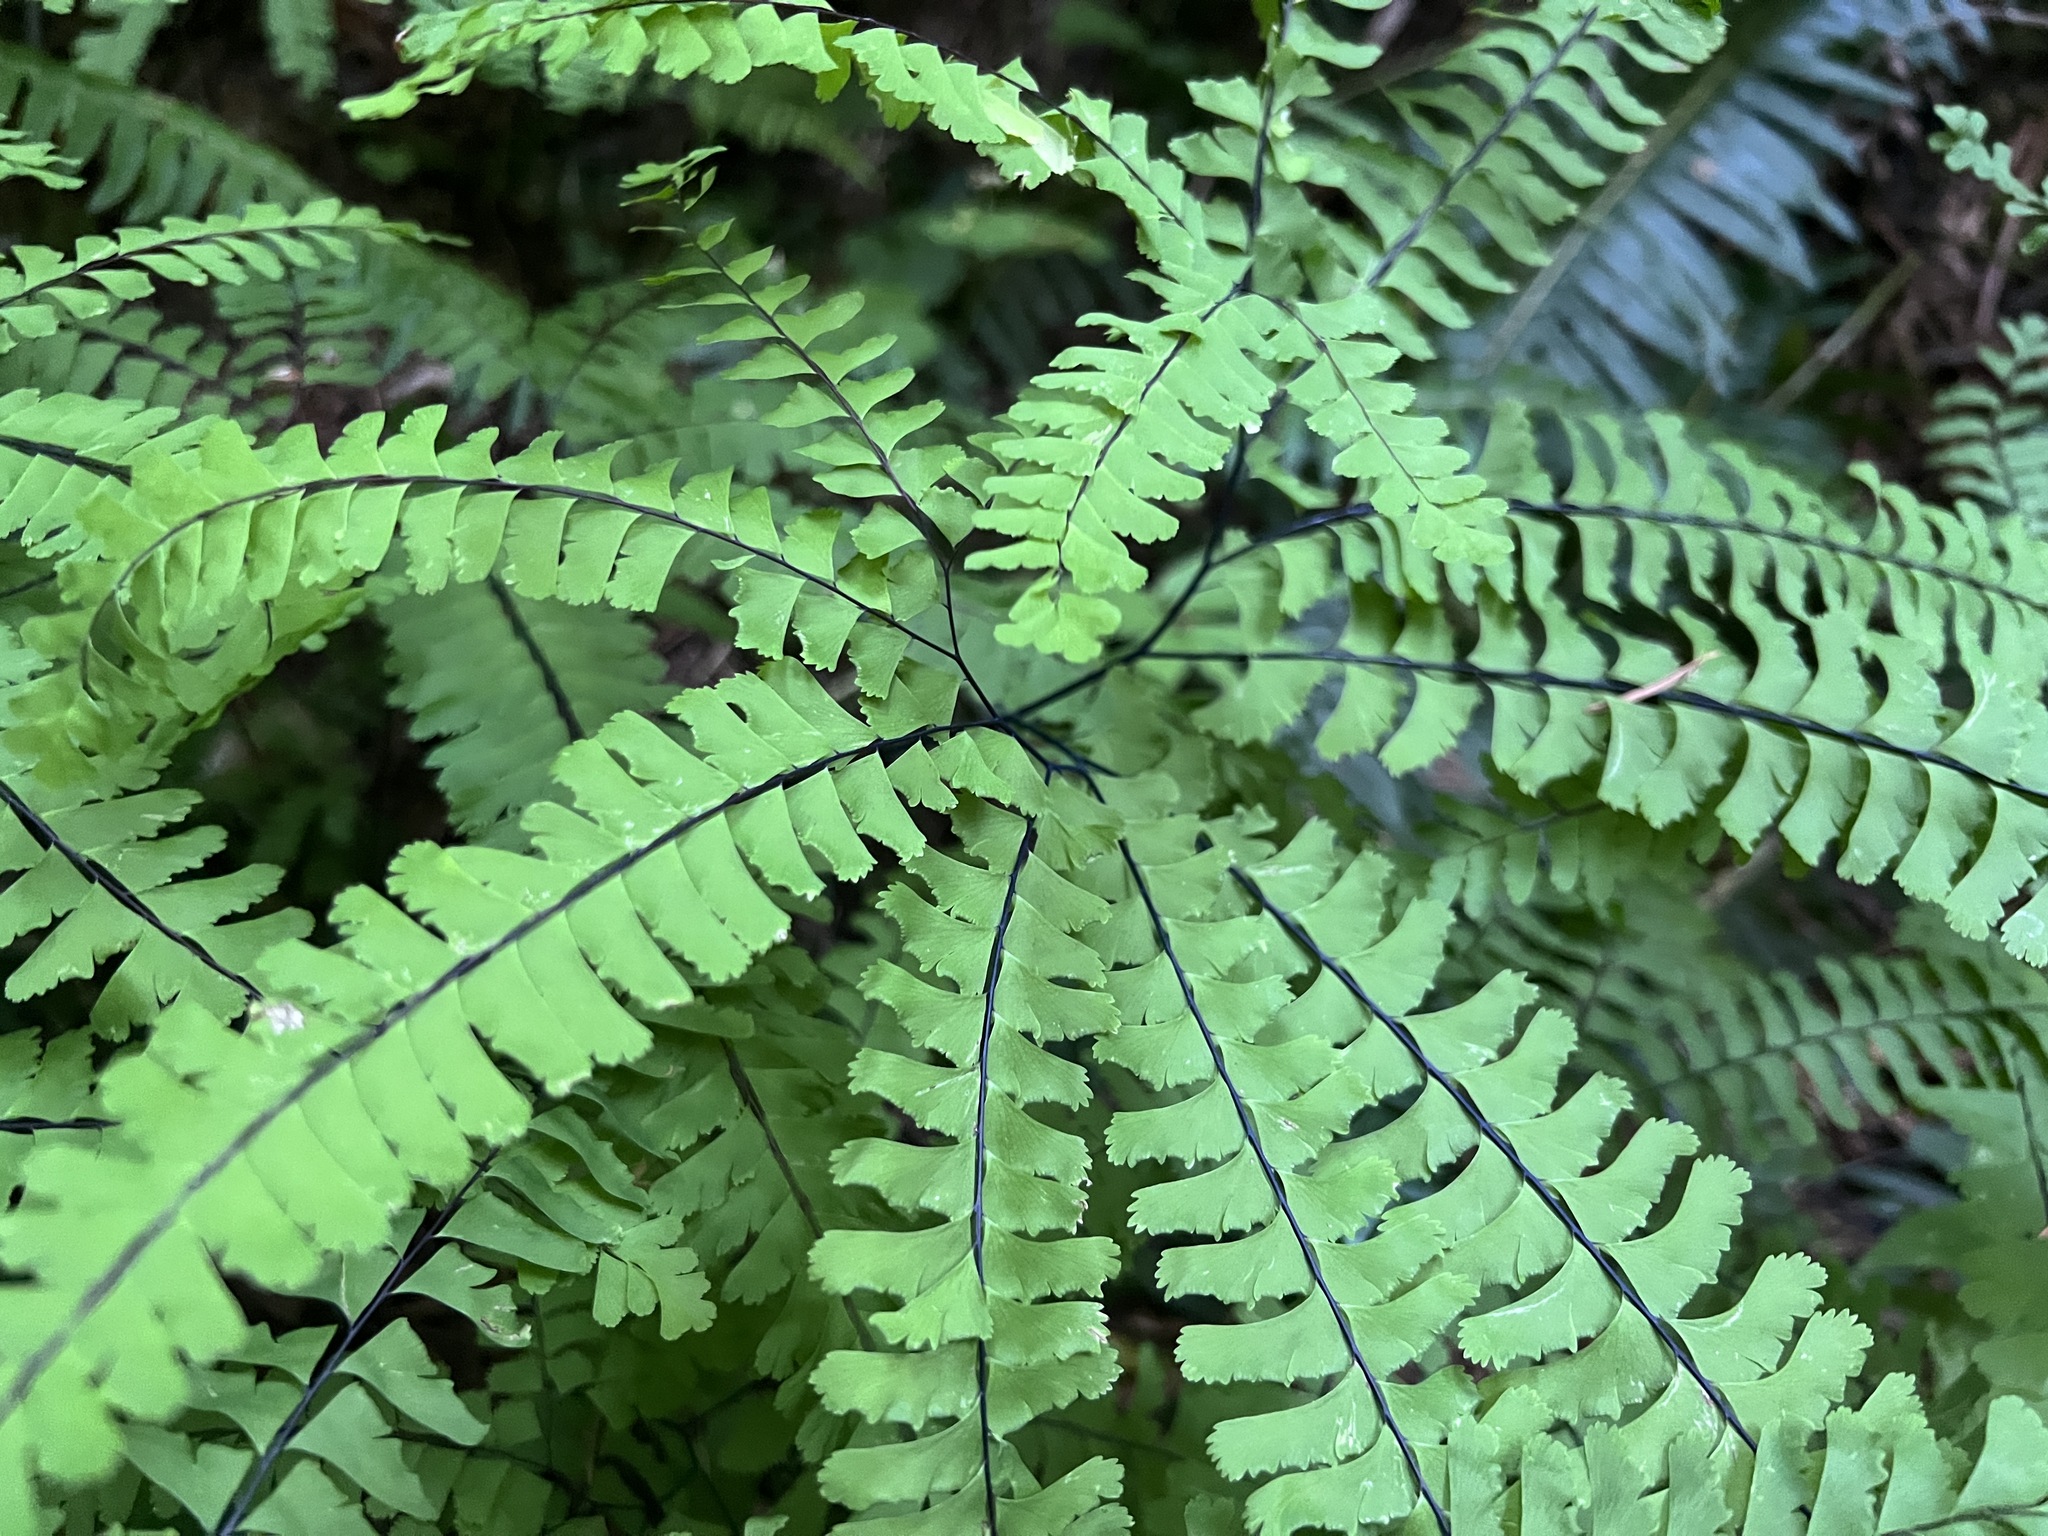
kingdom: Plantae
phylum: Tracheophyta
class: Polypodiopsida
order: Polypodiales
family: Pteridaceae
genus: Adiantum
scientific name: Adiantum aleuticum
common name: Aleutian maidenhair fern
